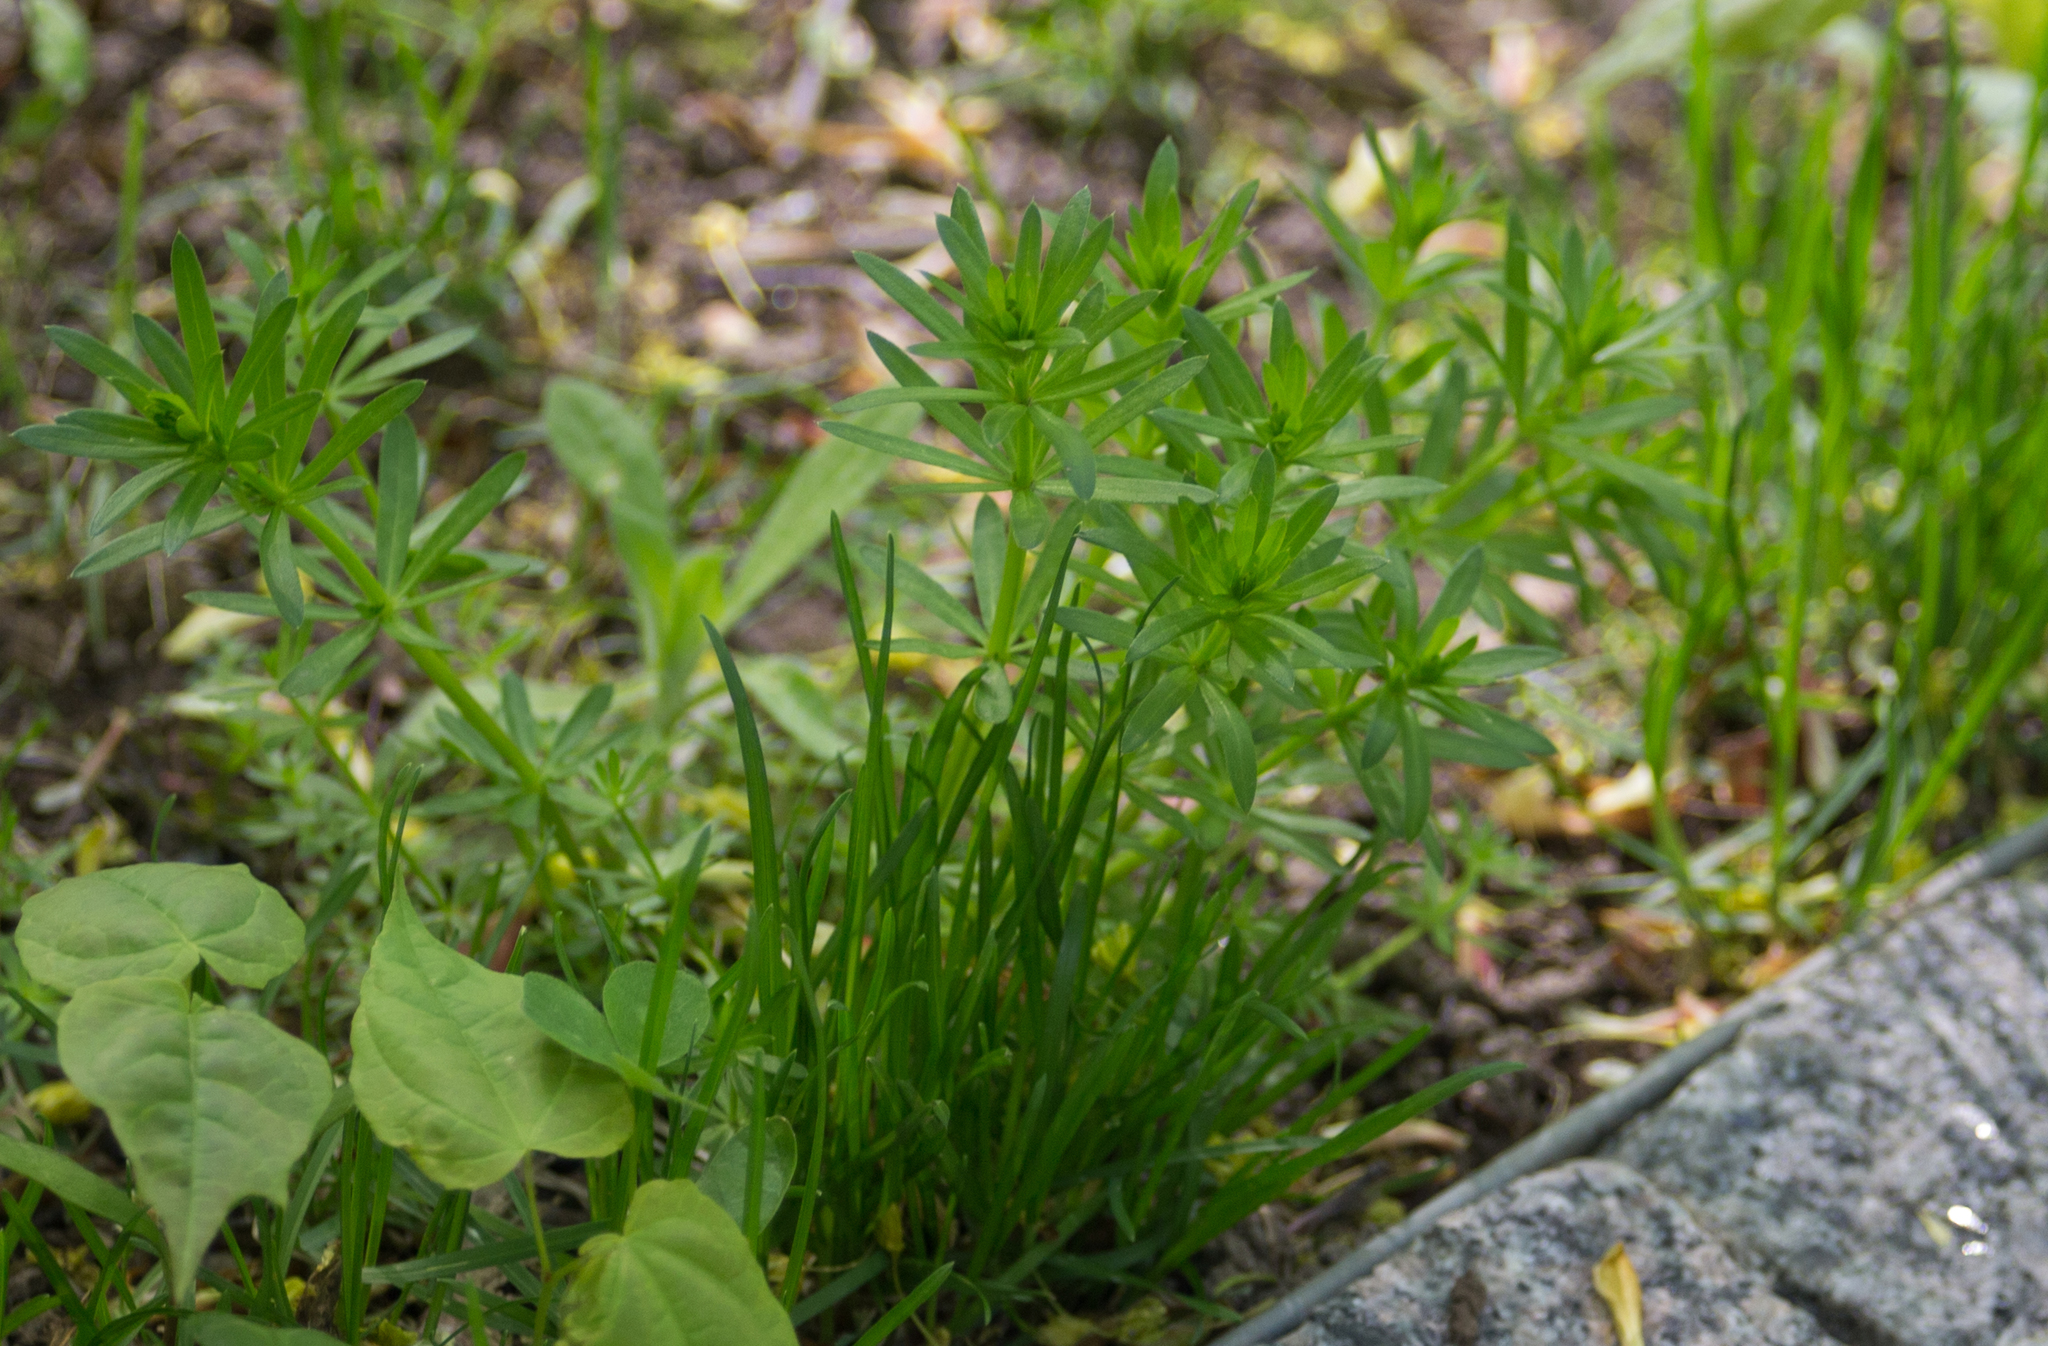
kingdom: Plantae
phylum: Tracheophyta
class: Magnoliopsida
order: Gentianales
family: Rubiaceae
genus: Galium
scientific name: Galium mollugo
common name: Hedge bedstraw
